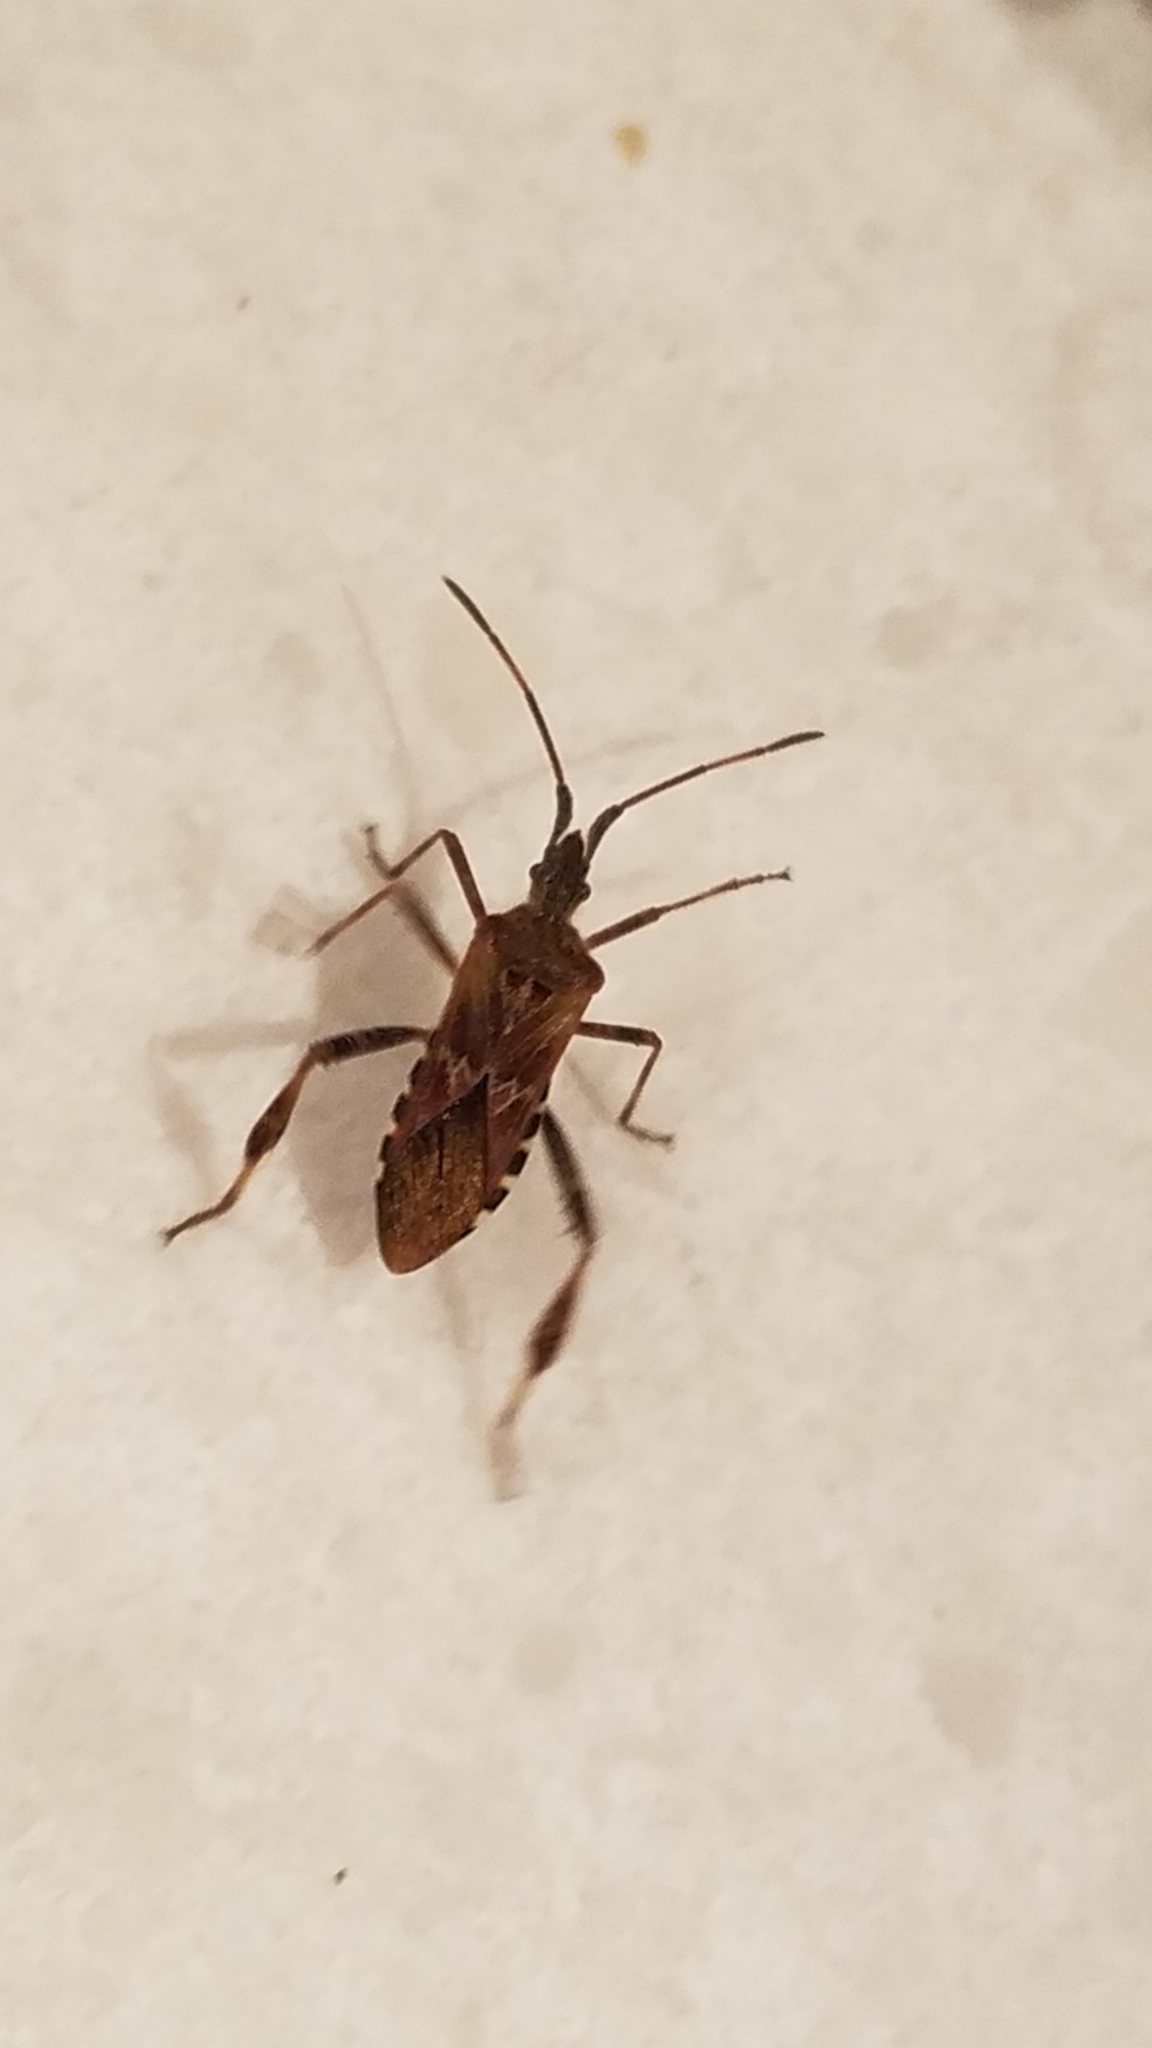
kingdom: Animalia
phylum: Arthropoda
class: Insecta
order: Hemiptera
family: Coreidae
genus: Leptoglossus
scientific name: Leptoglossus occidentalis
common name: Western conifer-seed bug
